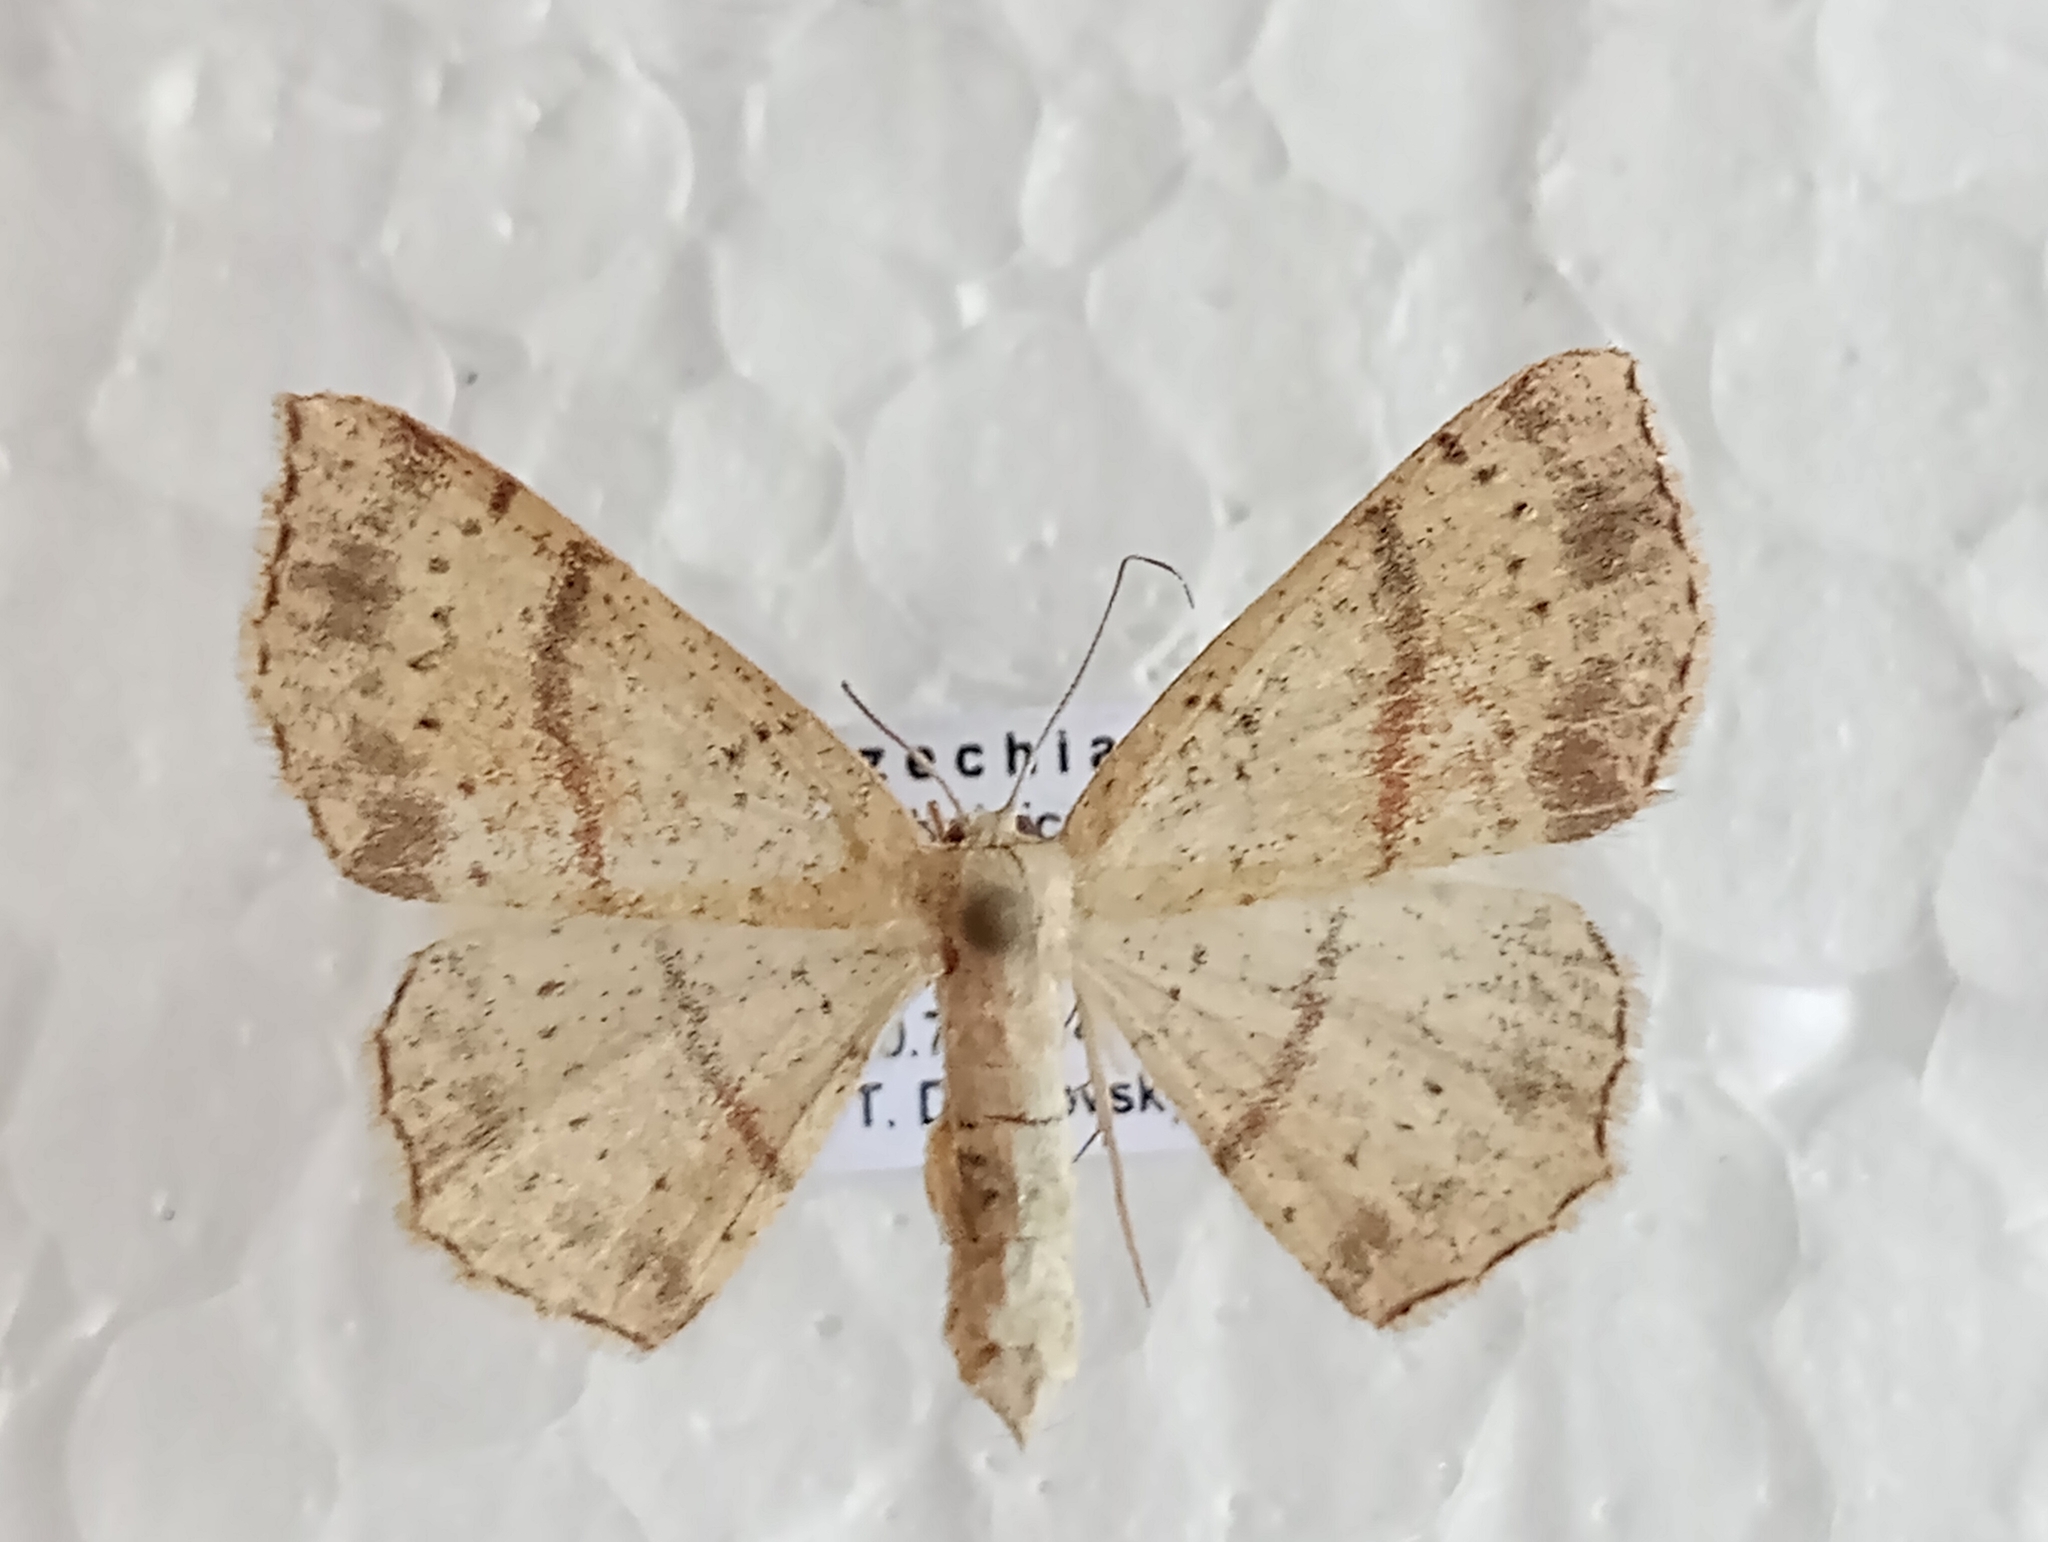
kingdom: Animalia
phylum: Arthropoda
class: Insecta
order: Lepidoptera
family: Geometridae
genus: Cyclophora
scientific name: Cyclophora punctaria
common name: Maiden's blush
